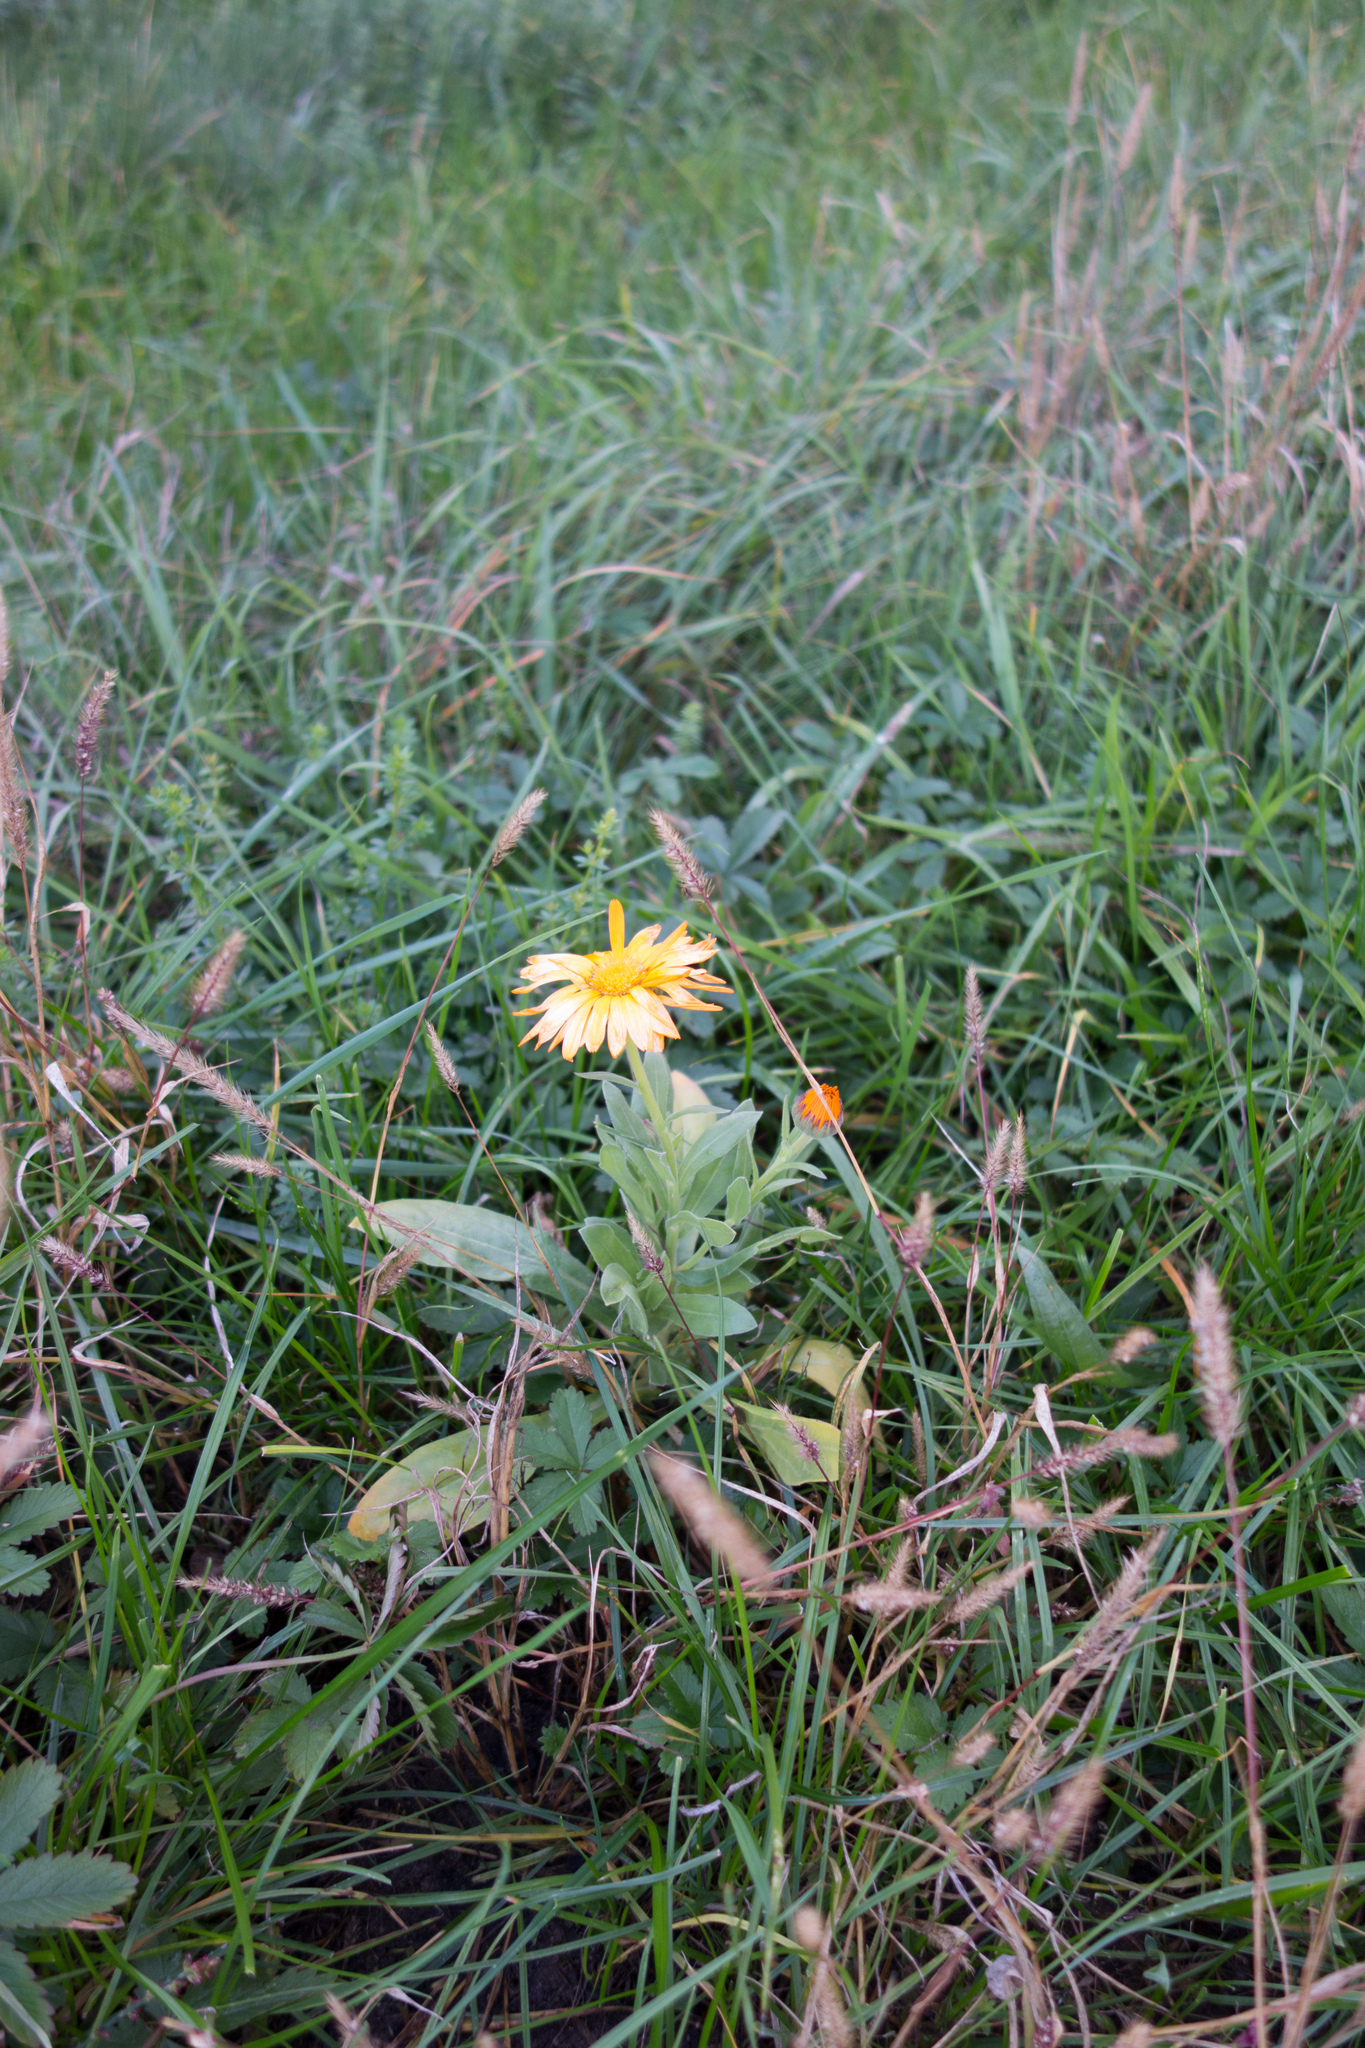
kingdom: Plantae
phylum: Tracheophyta
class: Magnoliopsida
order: Asterales
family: Asteraceae
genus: Calendula
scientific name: Calendula officinalis
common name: Pot marigold
